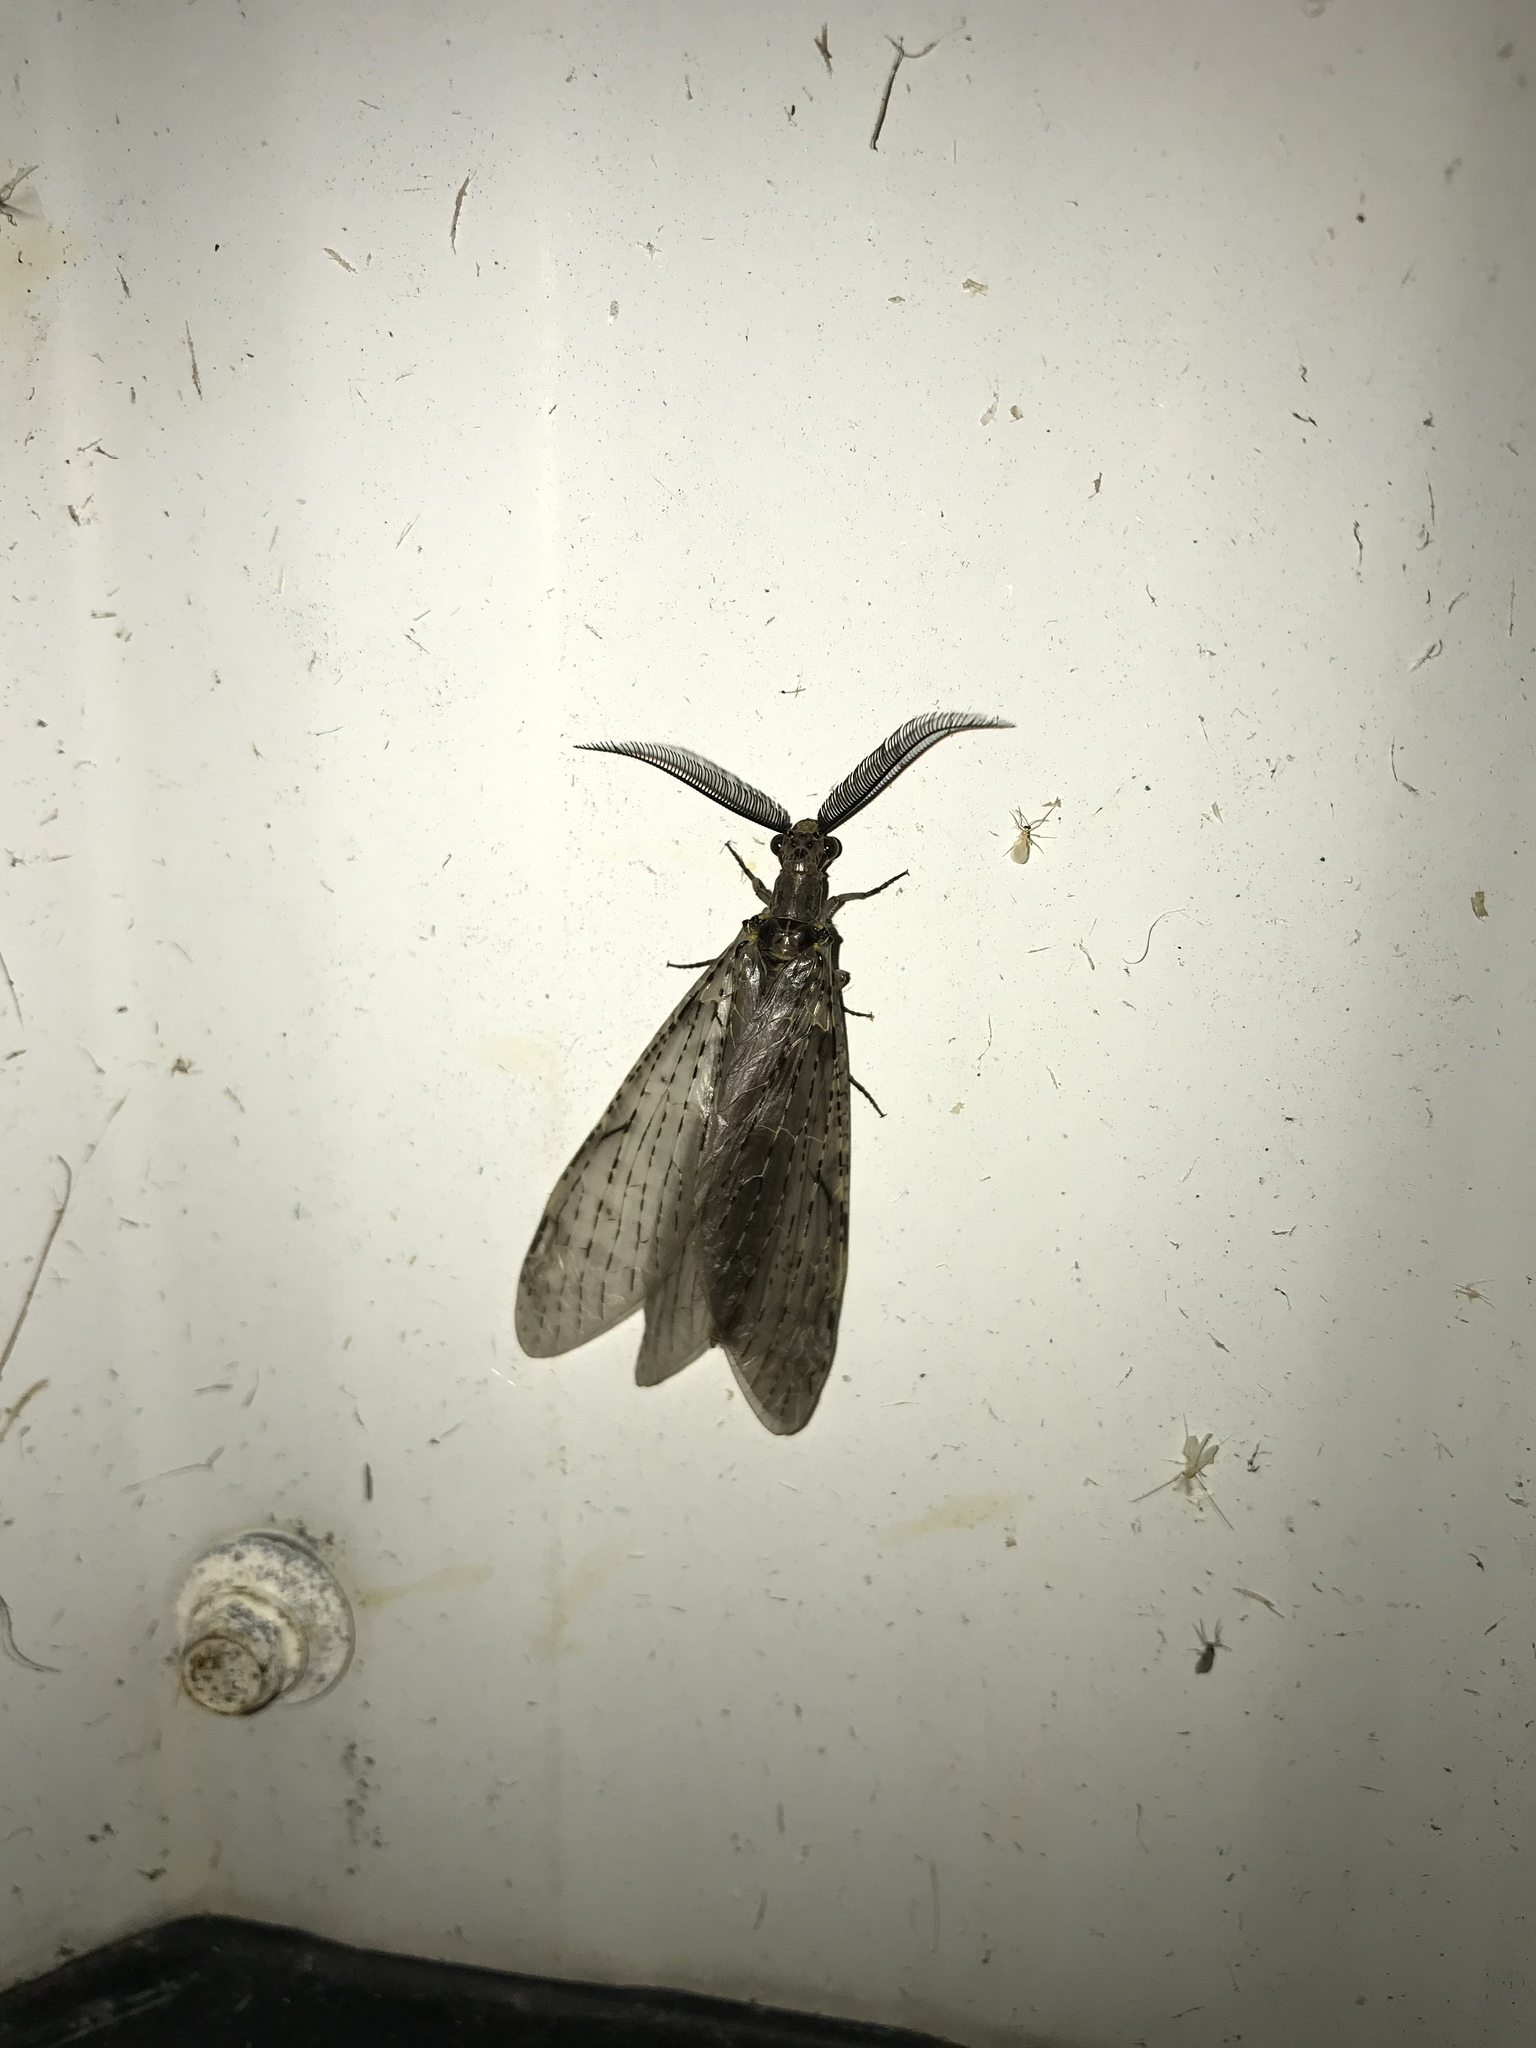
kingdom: Animalia
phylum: Arthropoda
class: Insecta
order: Megaloptera
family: Corydalidae
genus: Chauliodes
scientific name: Chauliodes rastricornis
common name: Spring fishfly
